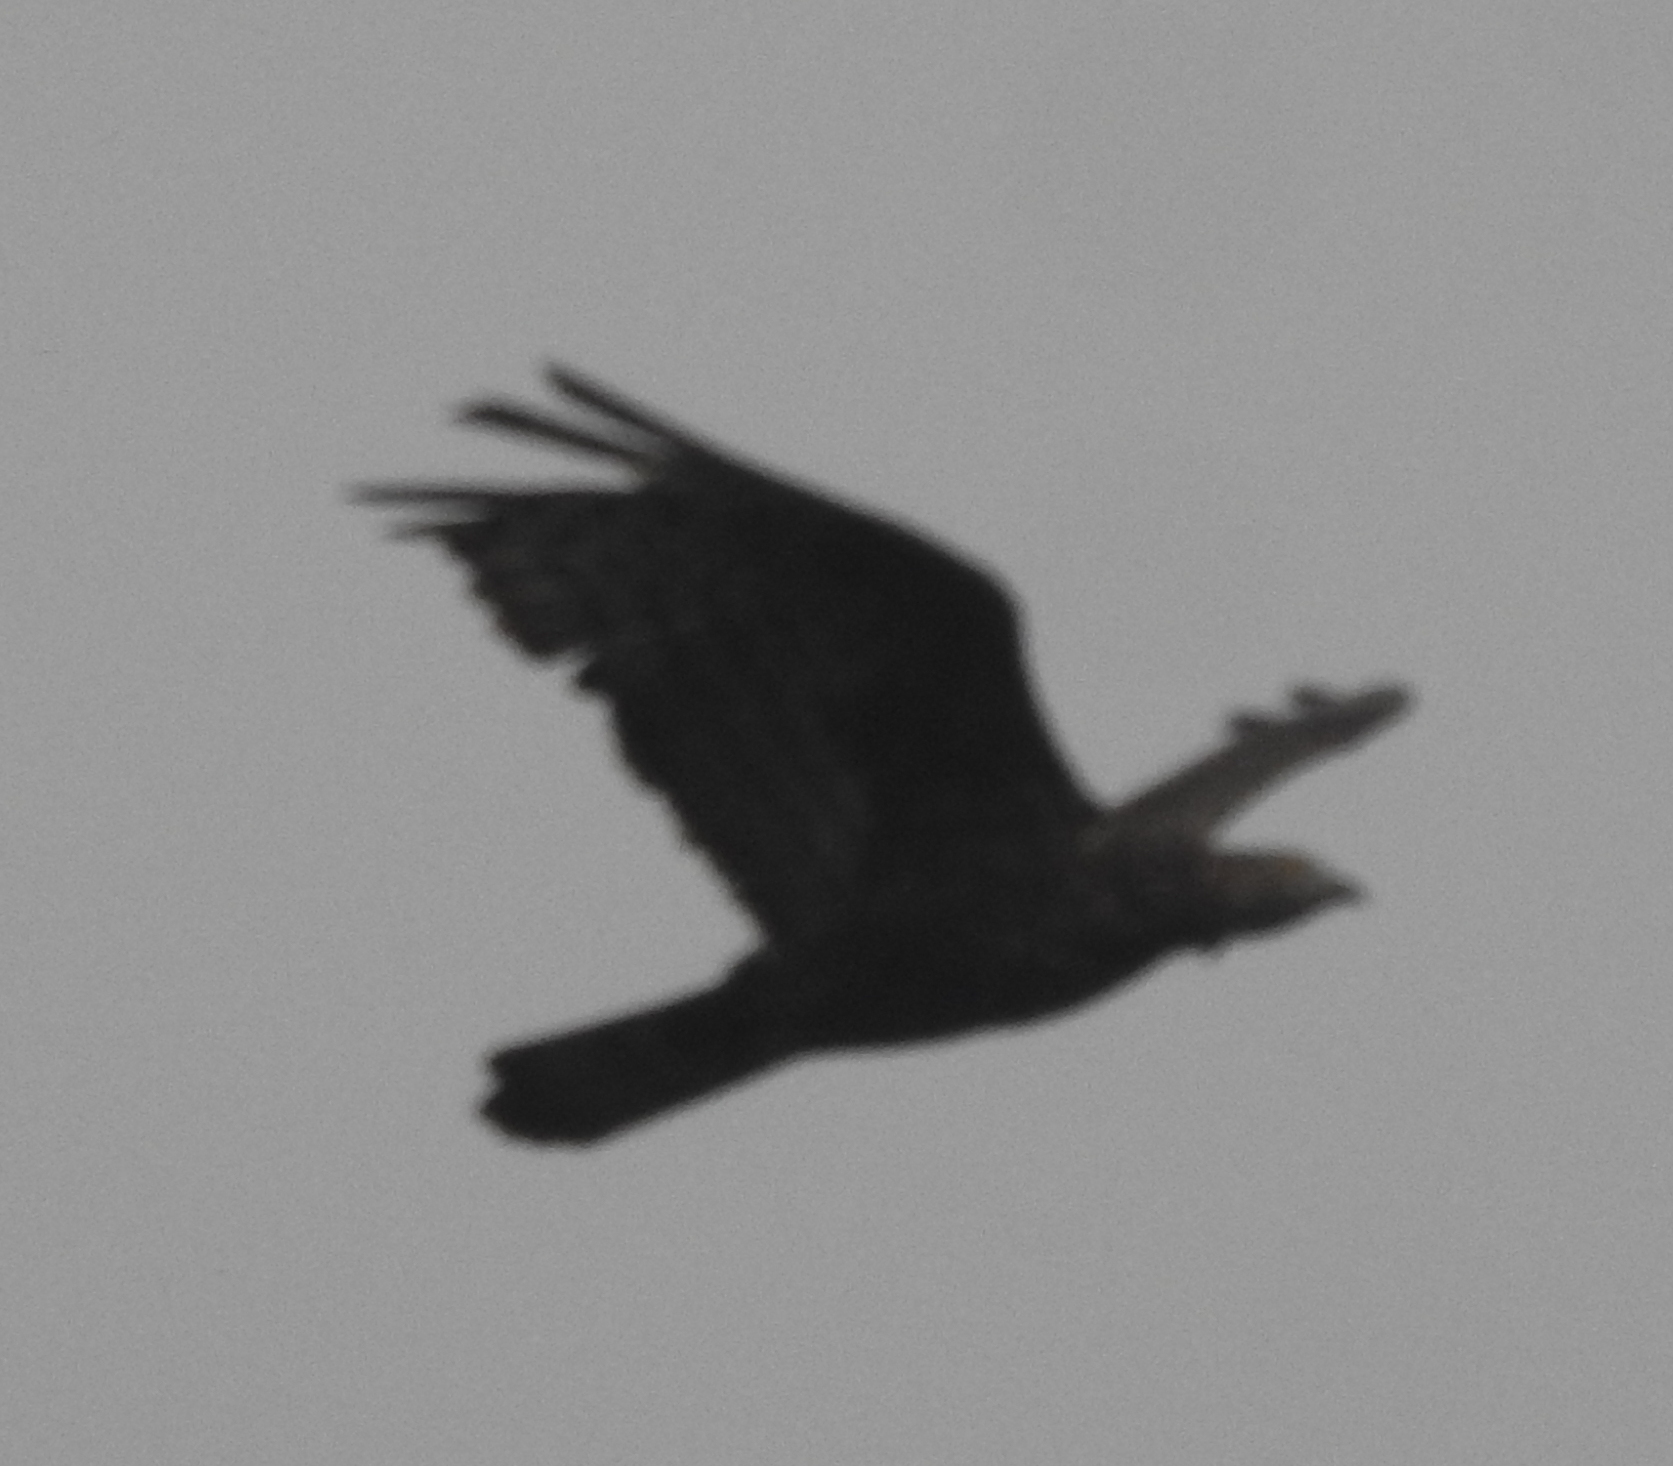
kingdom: Animalia
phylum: Chordata
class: Aves
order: Accipitriformes
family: Accipitridae
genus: Pernis
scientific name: Pernis ptilorhynchus
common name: Crested honey buzzard
